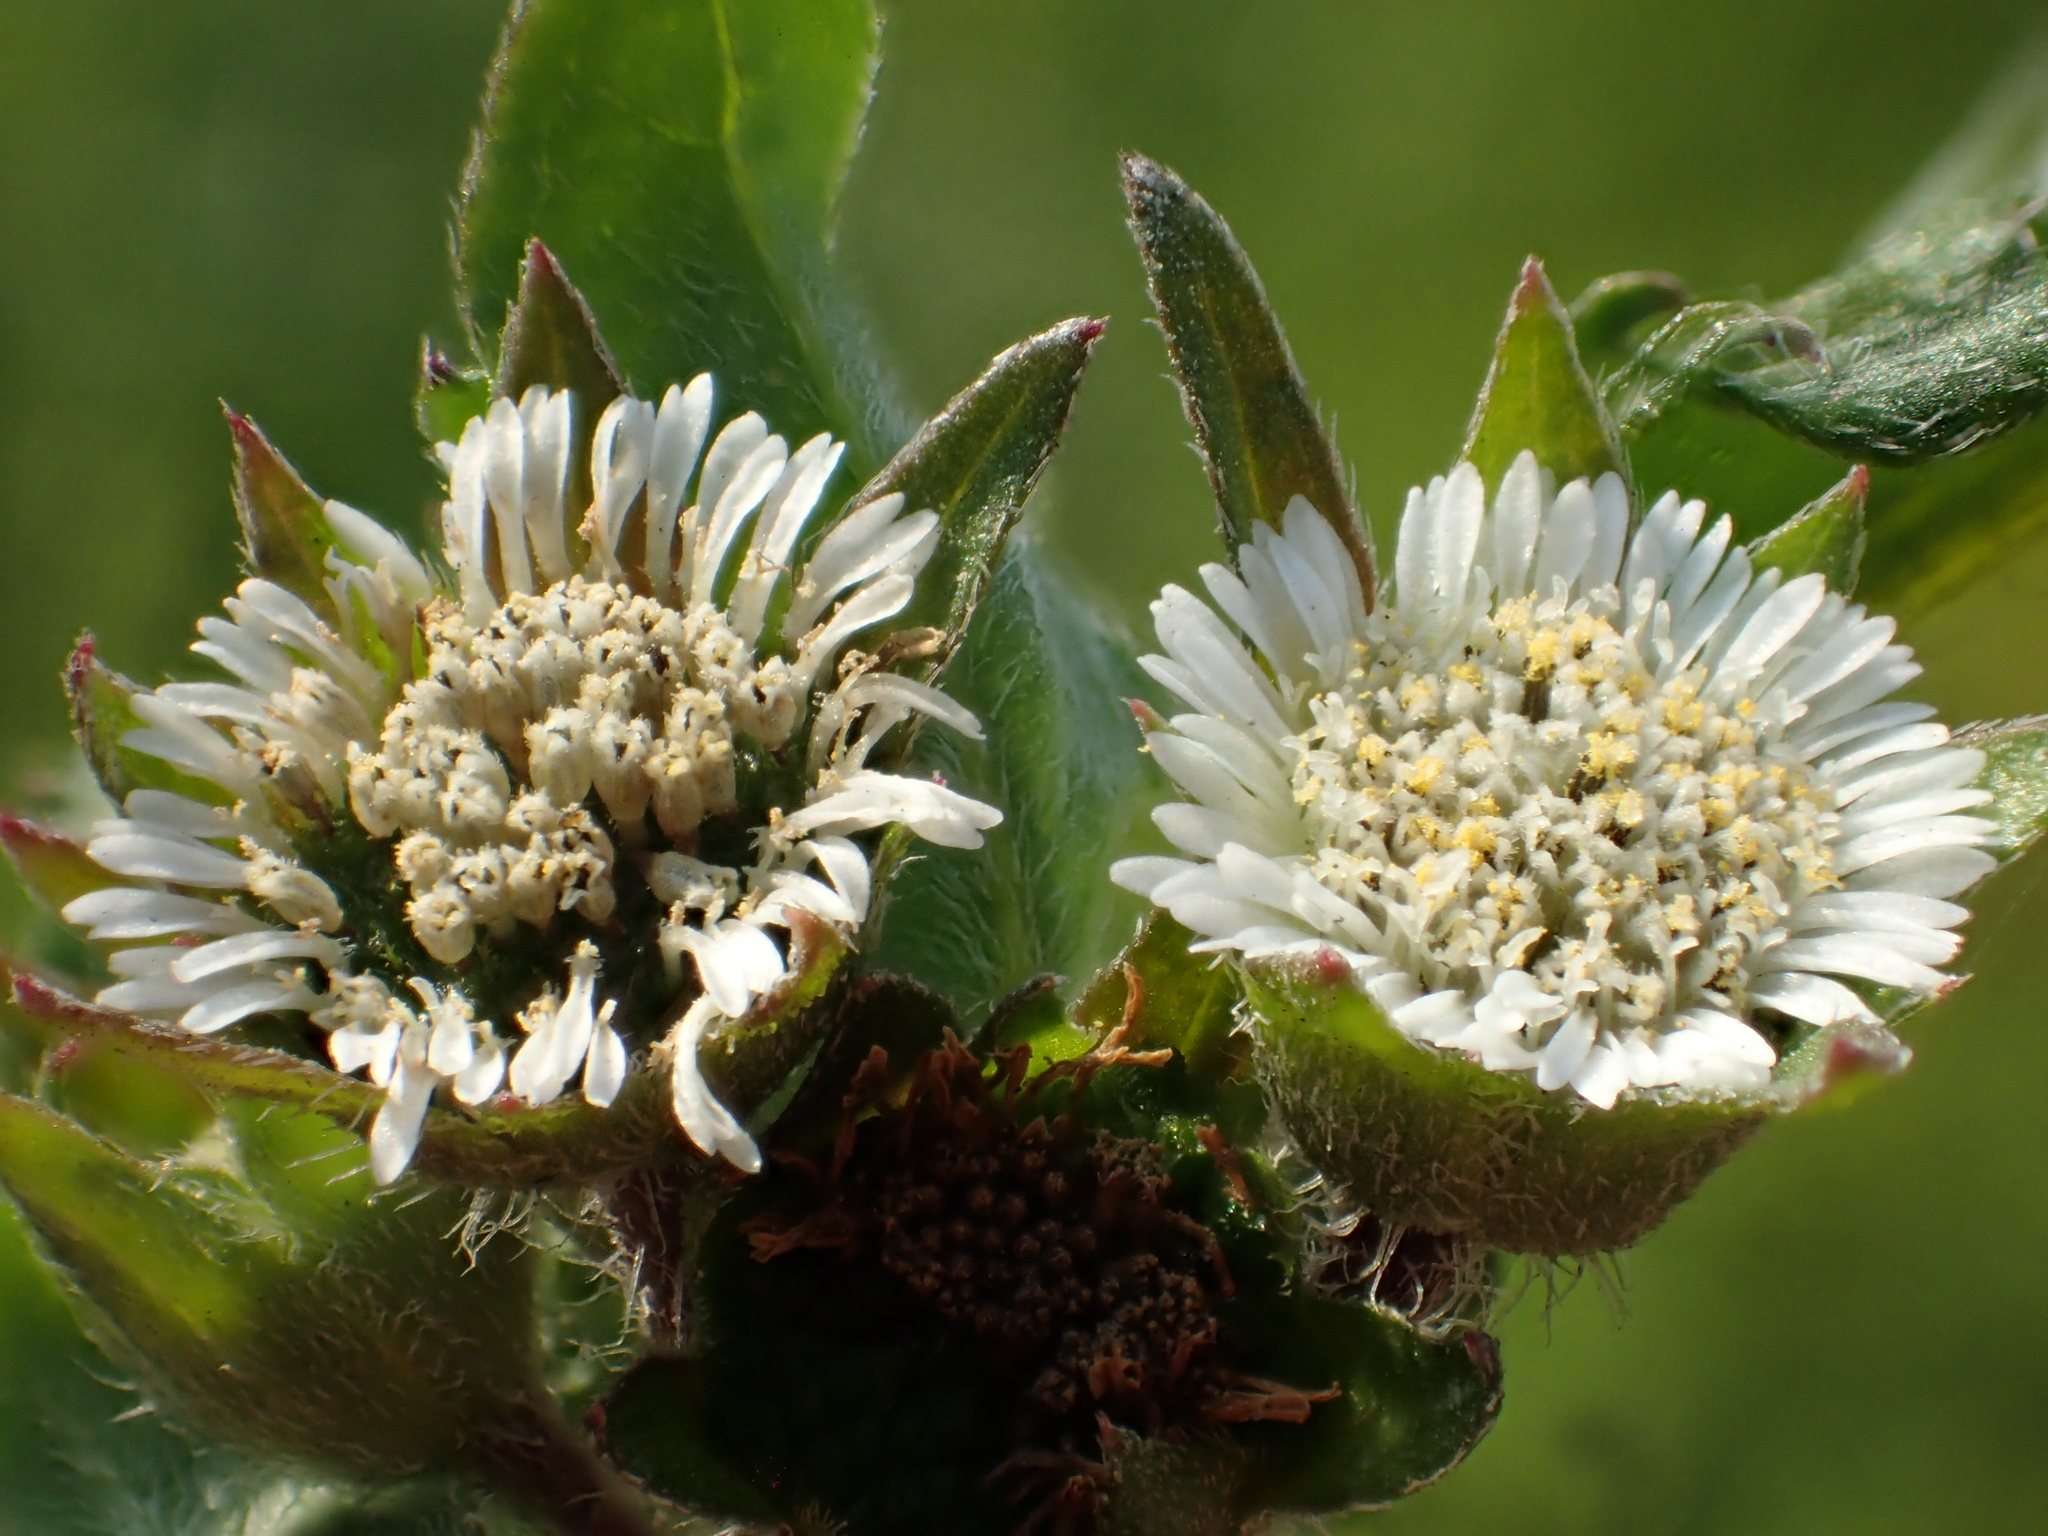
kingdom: Plantae
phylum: Tracheophyta
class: Magnoliopsida
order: Asterales
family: Asteraceae
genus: Eclipta
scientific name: Eclipta prostrata
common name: False daisy
